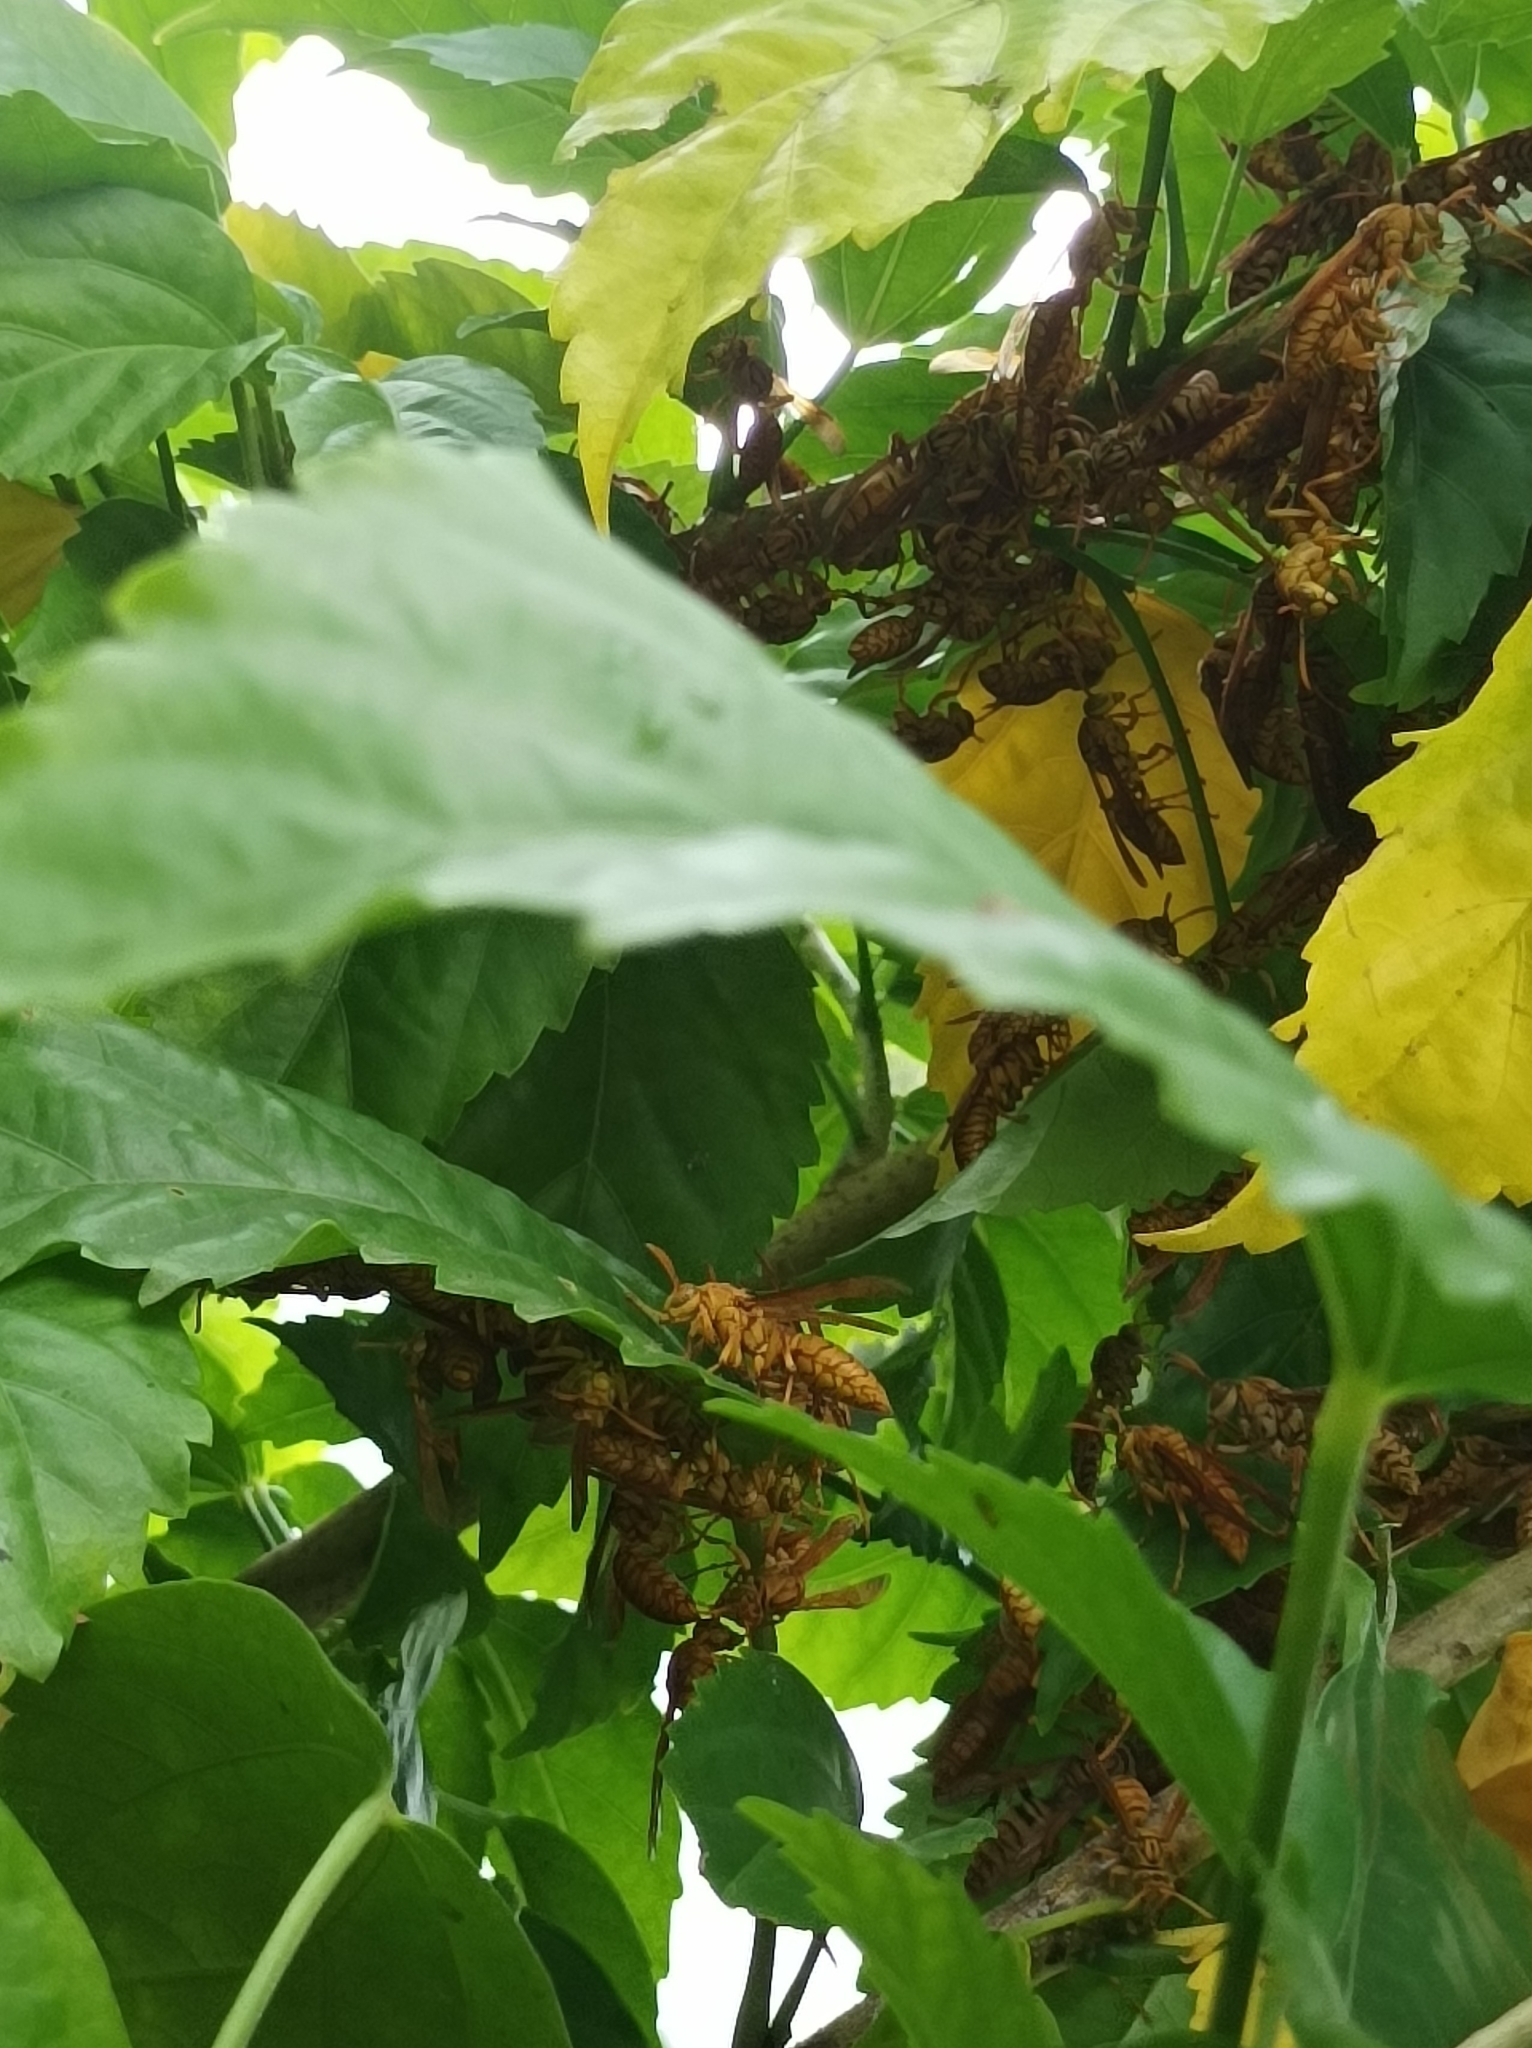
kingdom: Animalia
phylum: Arthropoda
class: Insecta
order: Hymenoptera
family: Eumenidae
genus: Polistes
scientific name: Polistes olivaceus
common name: Paper wasp
